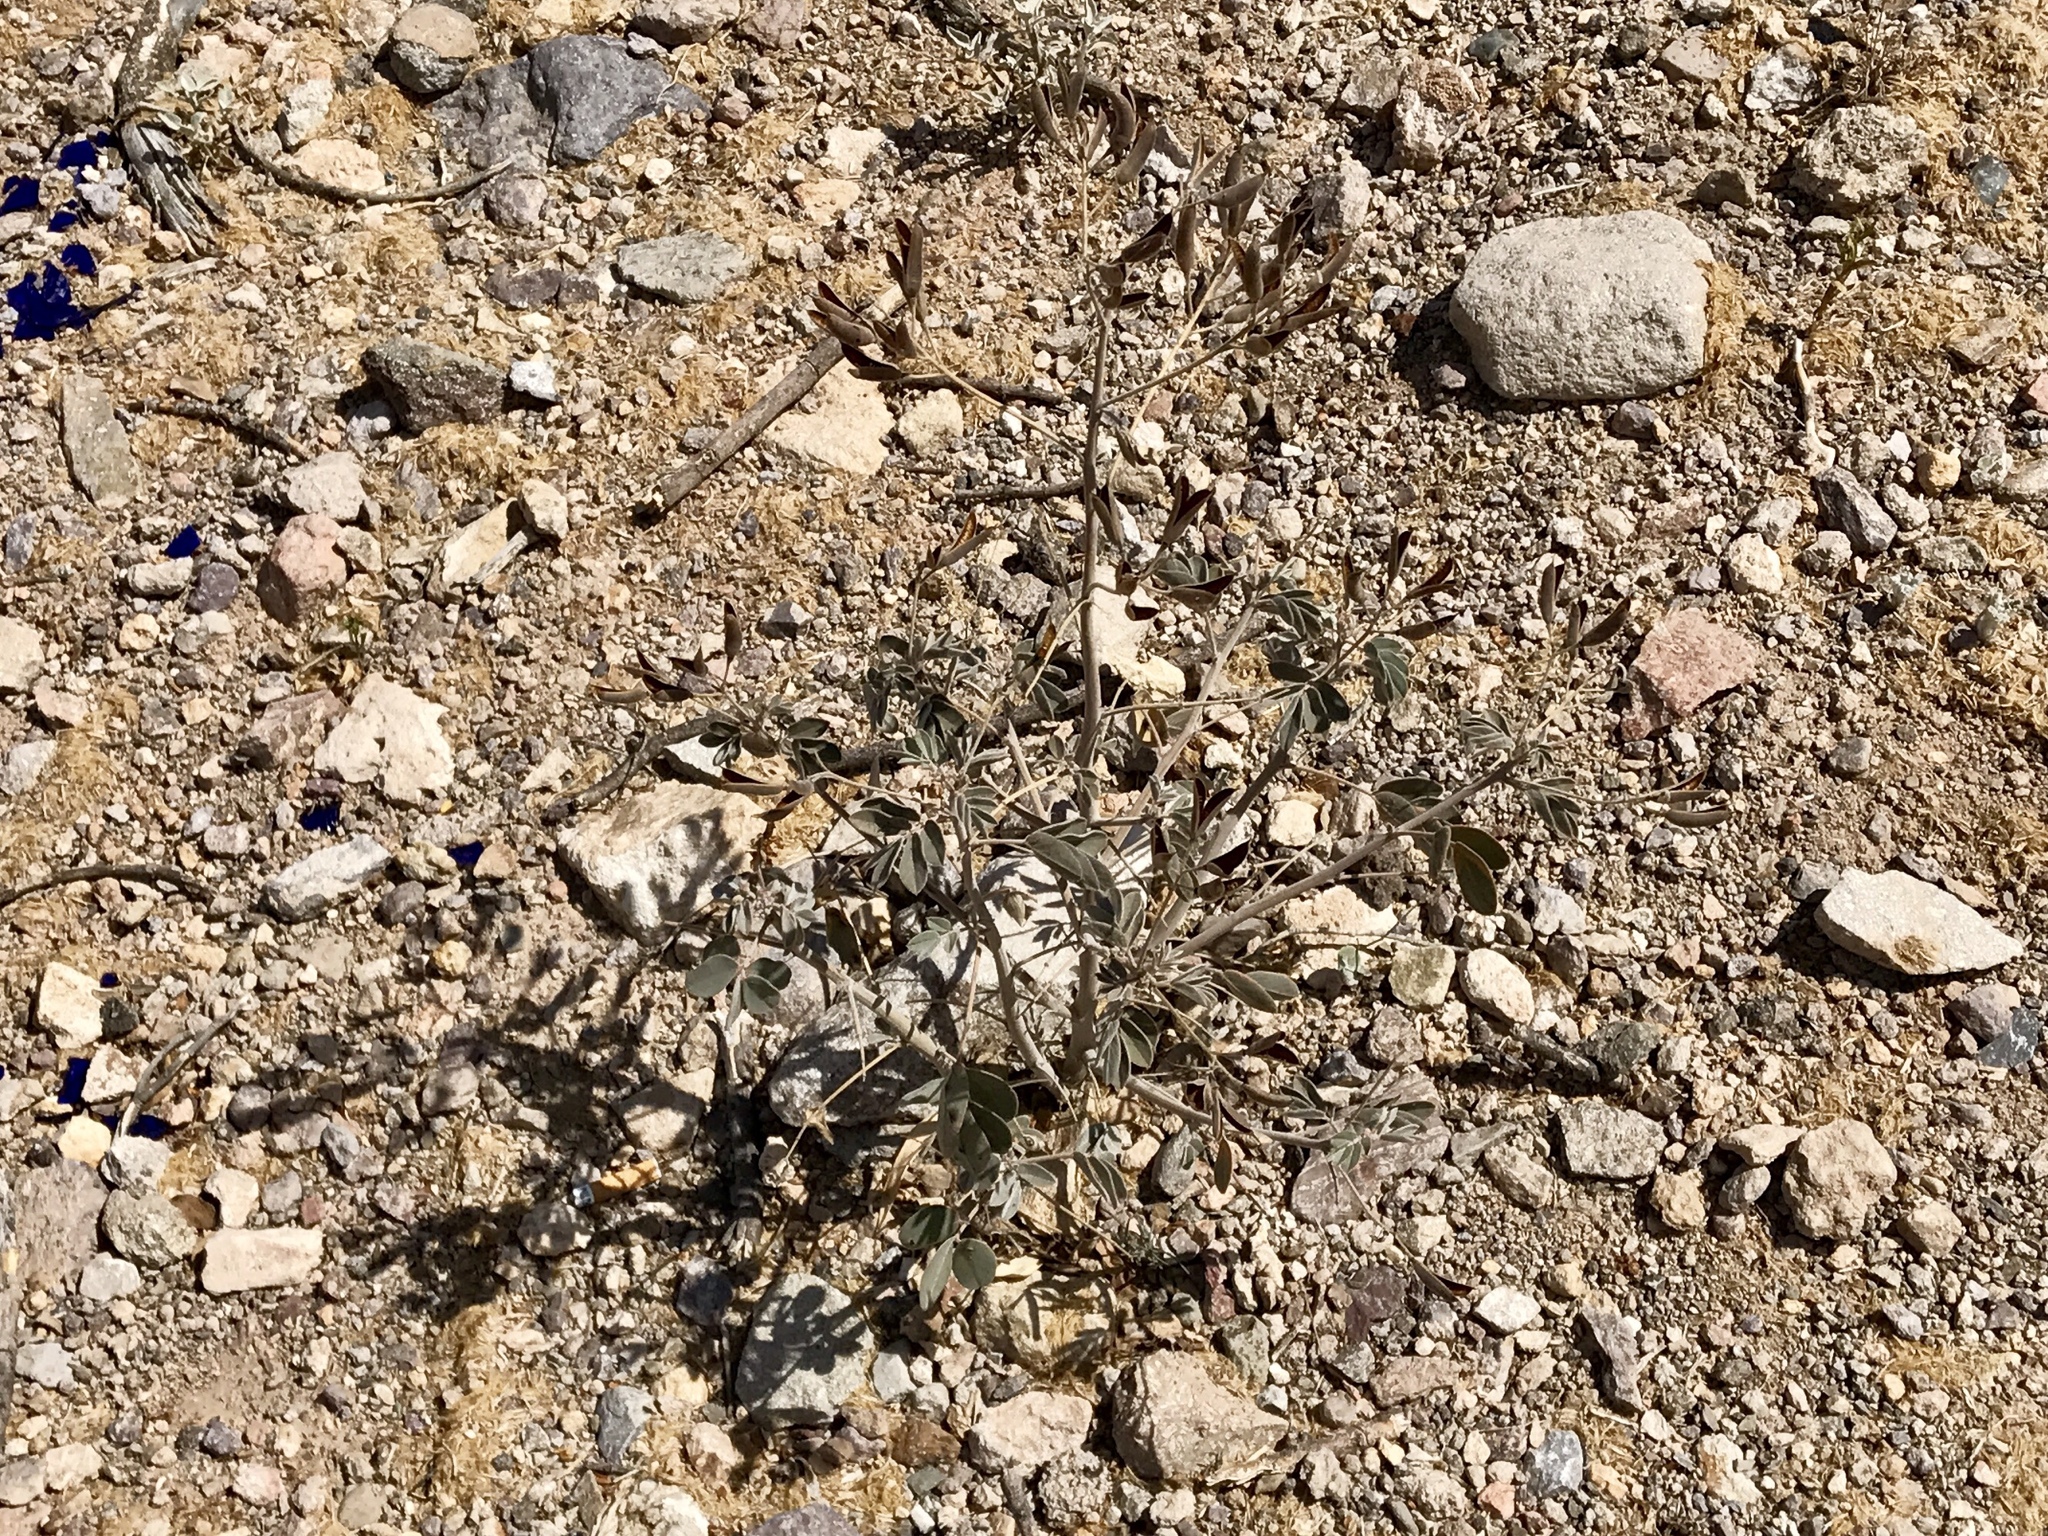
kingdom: Plantae
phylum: Tracheophyta
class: Magnoliopsida
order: Fabales
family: Fabaceae
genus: Senna
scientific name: Senna covesii
